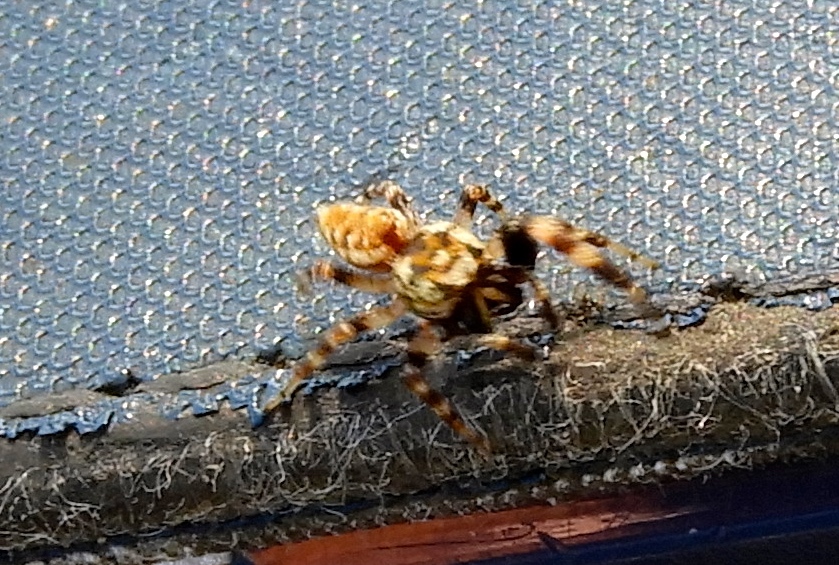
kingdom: Animalia
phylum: Arthropoda
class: Arachnida
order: Araneae
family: Salticidae
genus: Pelegrina
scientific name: Pelegrina
